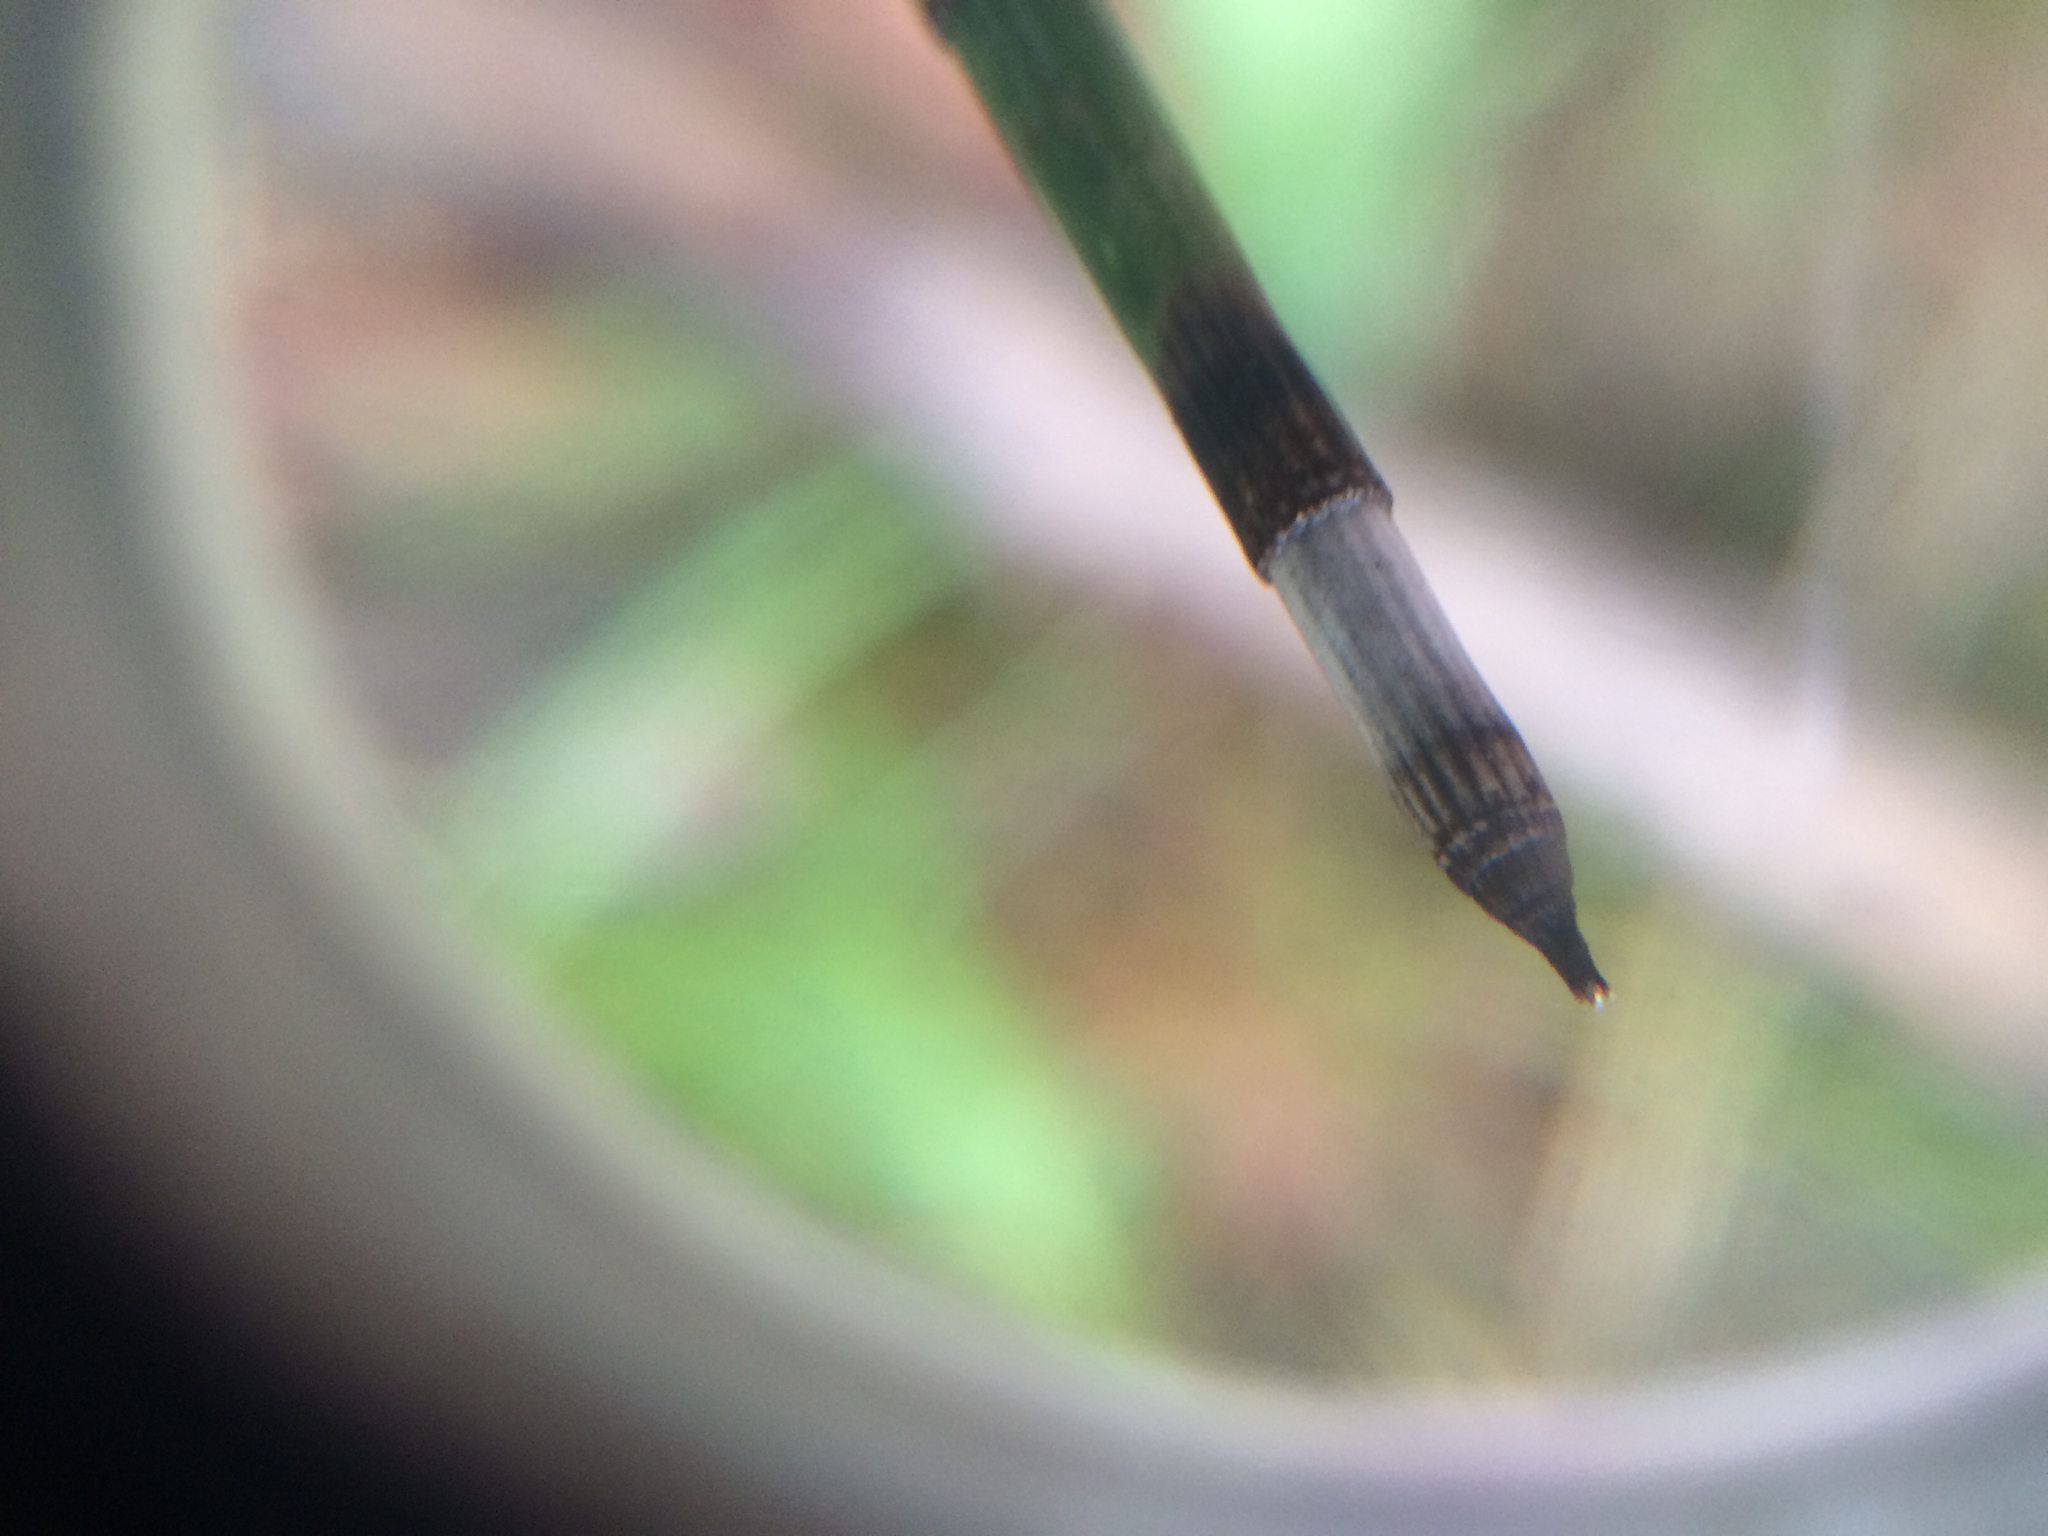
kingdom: Plantae
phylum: Tracheophyta
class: Polypodiopsida
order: Equisetales
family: Equisetaceae
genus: Equisetum
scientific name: Equisetum hyemale
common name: Rough horsetail
